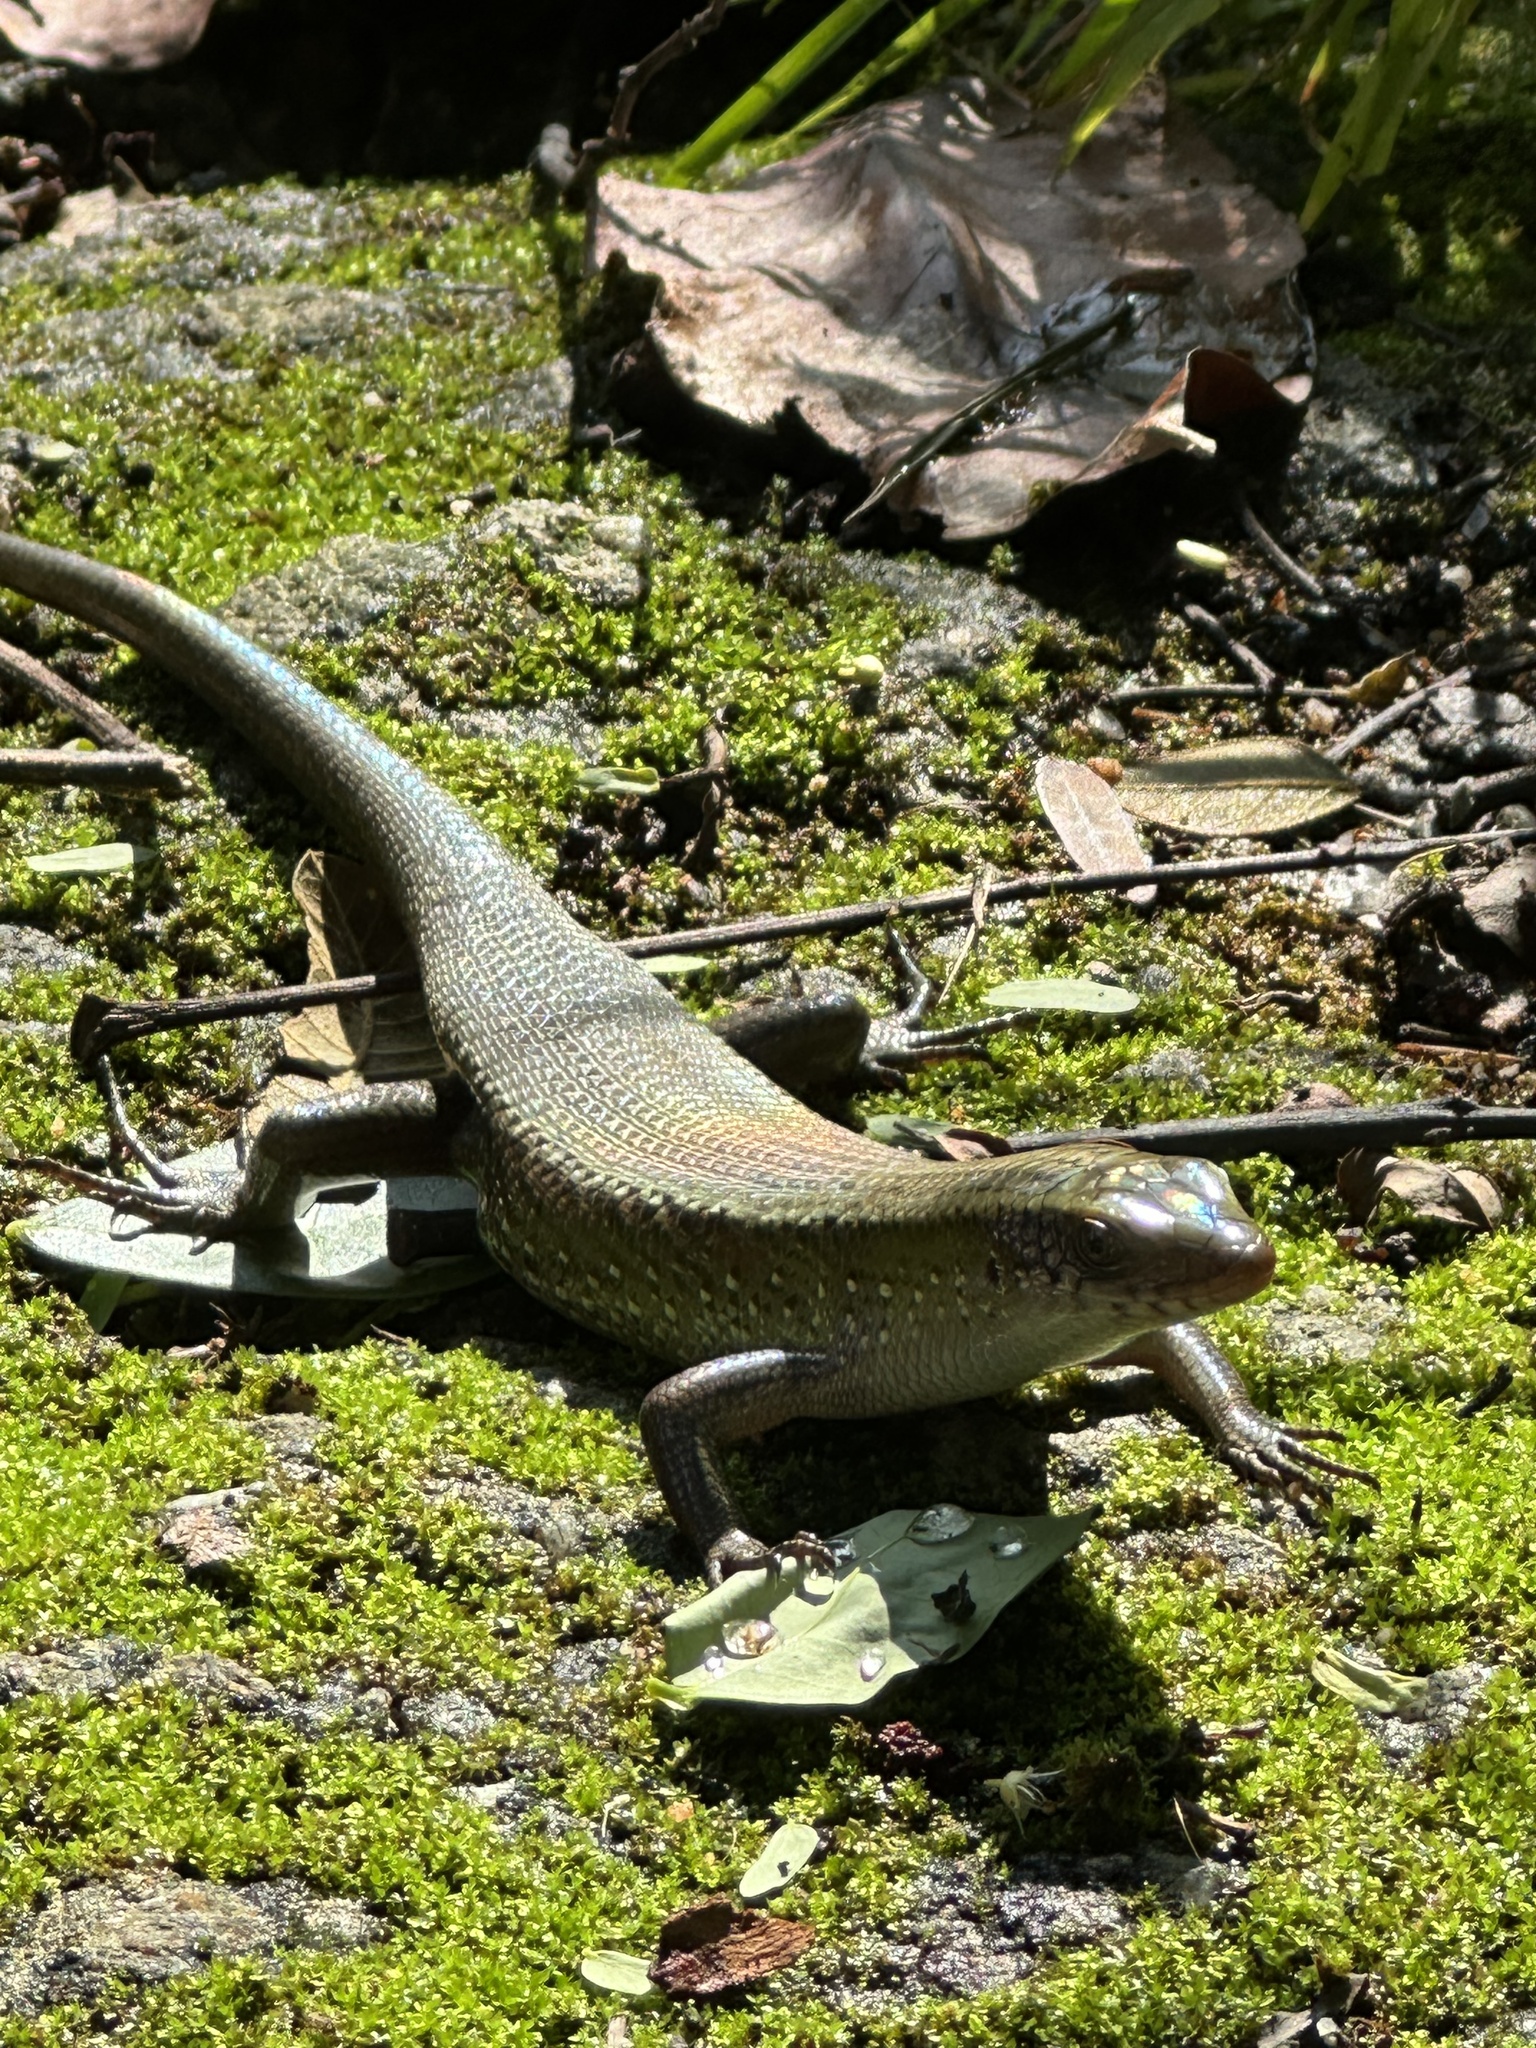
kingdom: Animalia
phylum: Chordata
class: Squamata
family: Scincidae
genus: Eutropis
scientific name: Eutropis multifasciata
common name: Common mabuya
